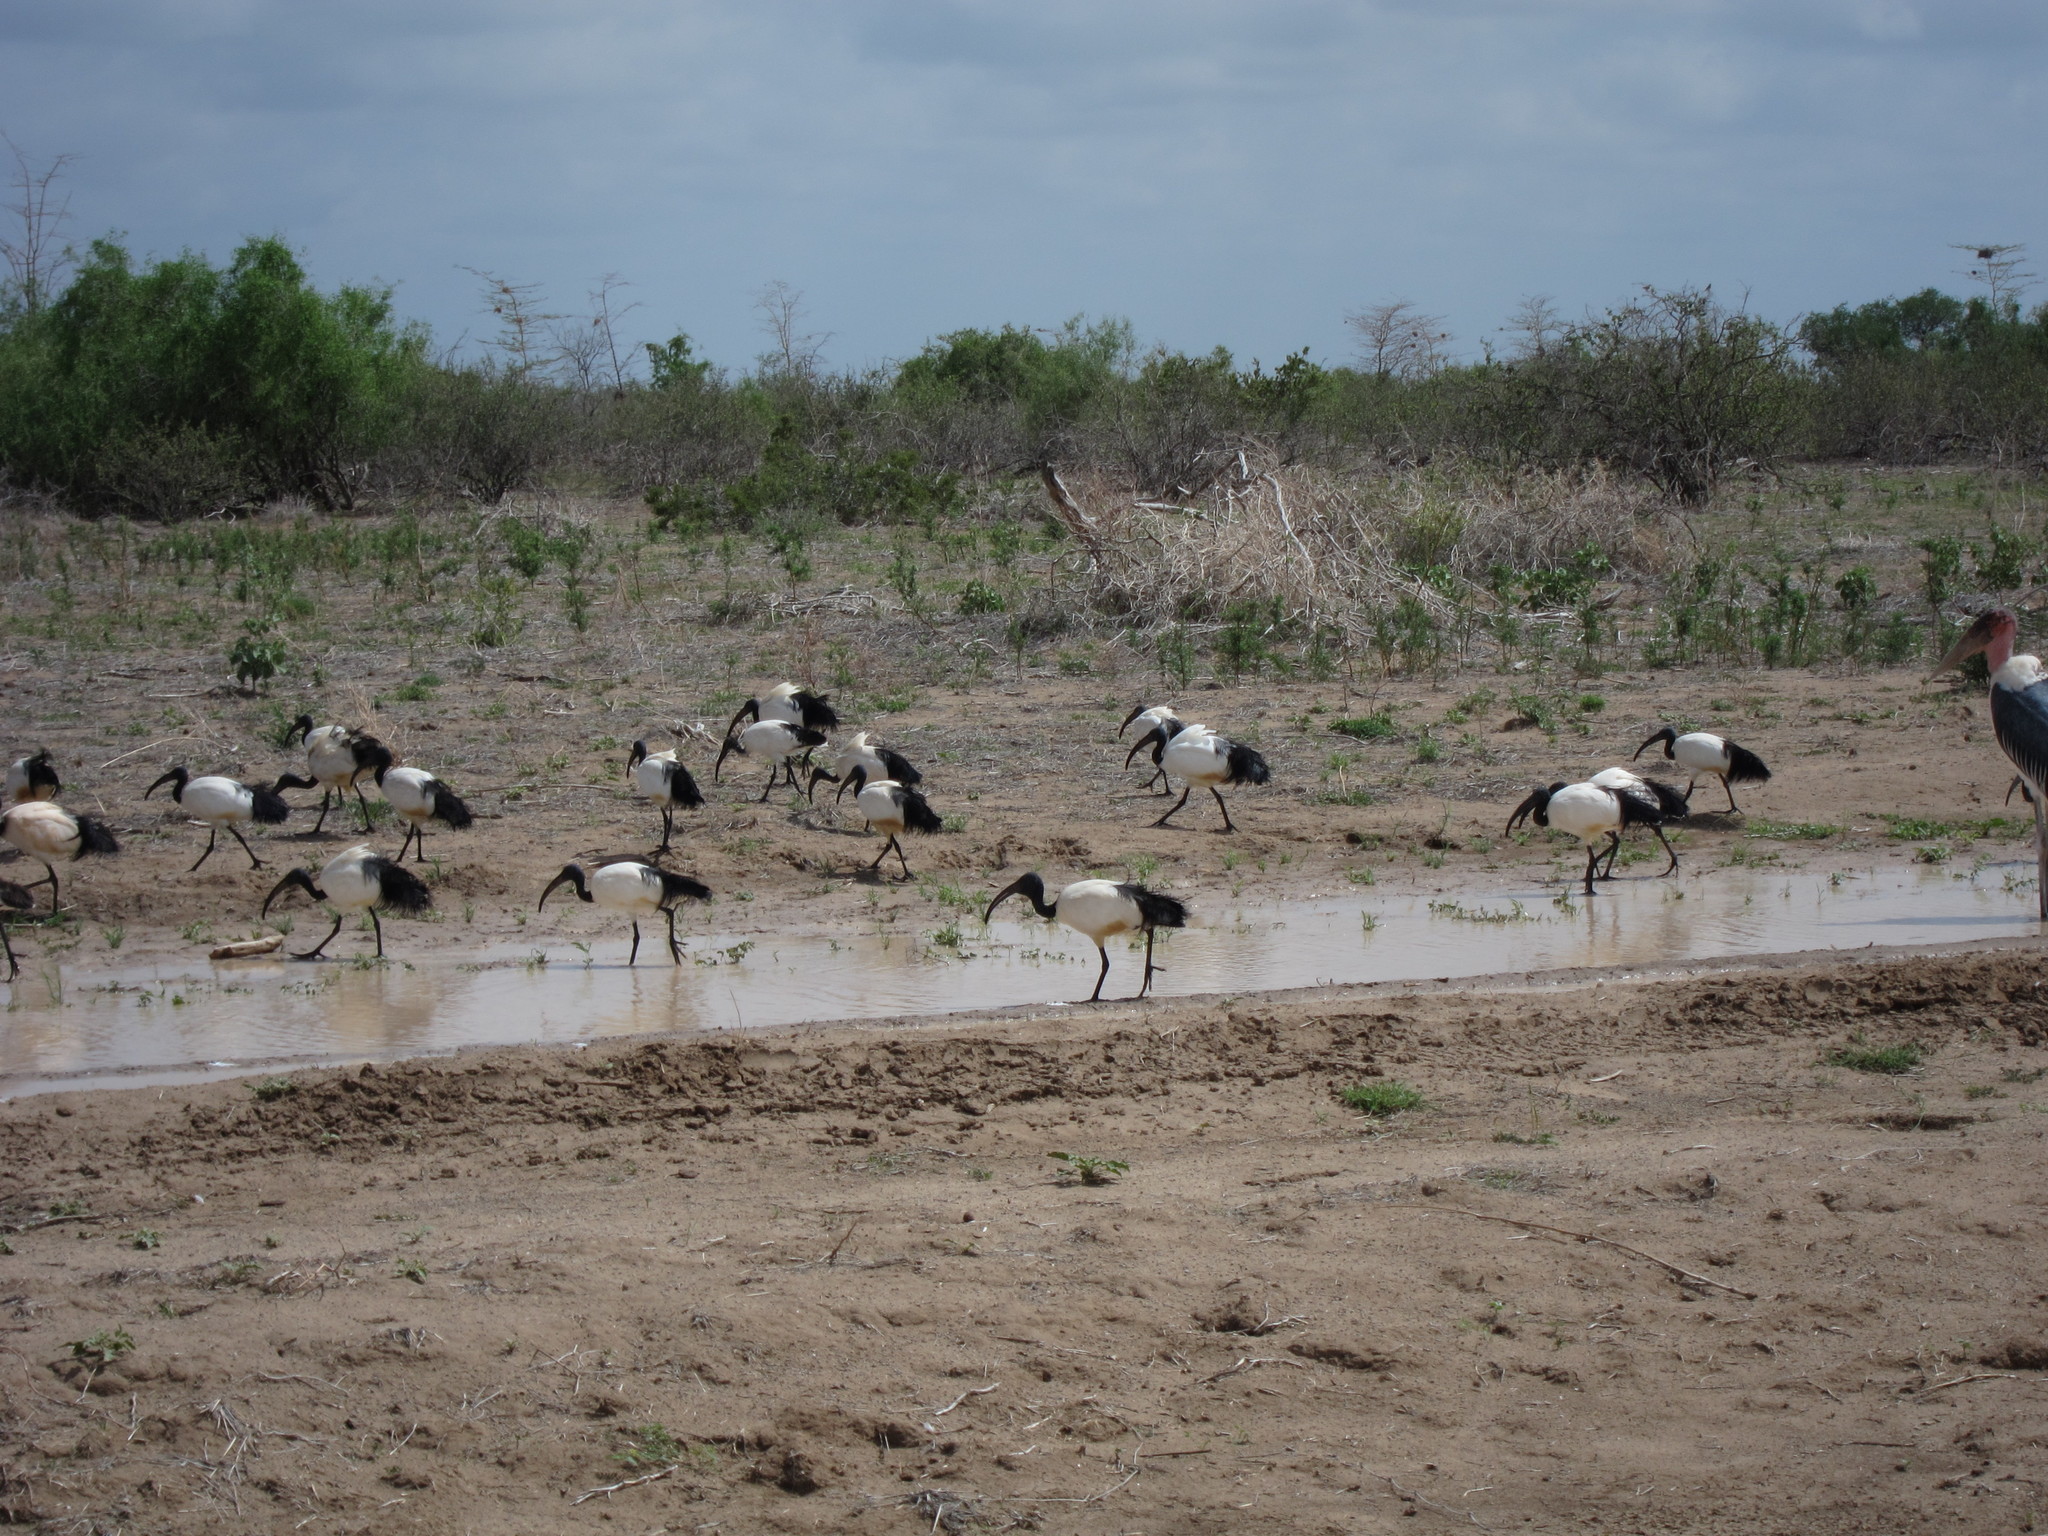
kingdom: Animalia
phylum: Chordata
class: Aves
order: Pelecaniformes
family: Threskiornithidae
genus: Threskiornis
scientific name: Threskiornis aethiopicus
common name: Sacred ibis
